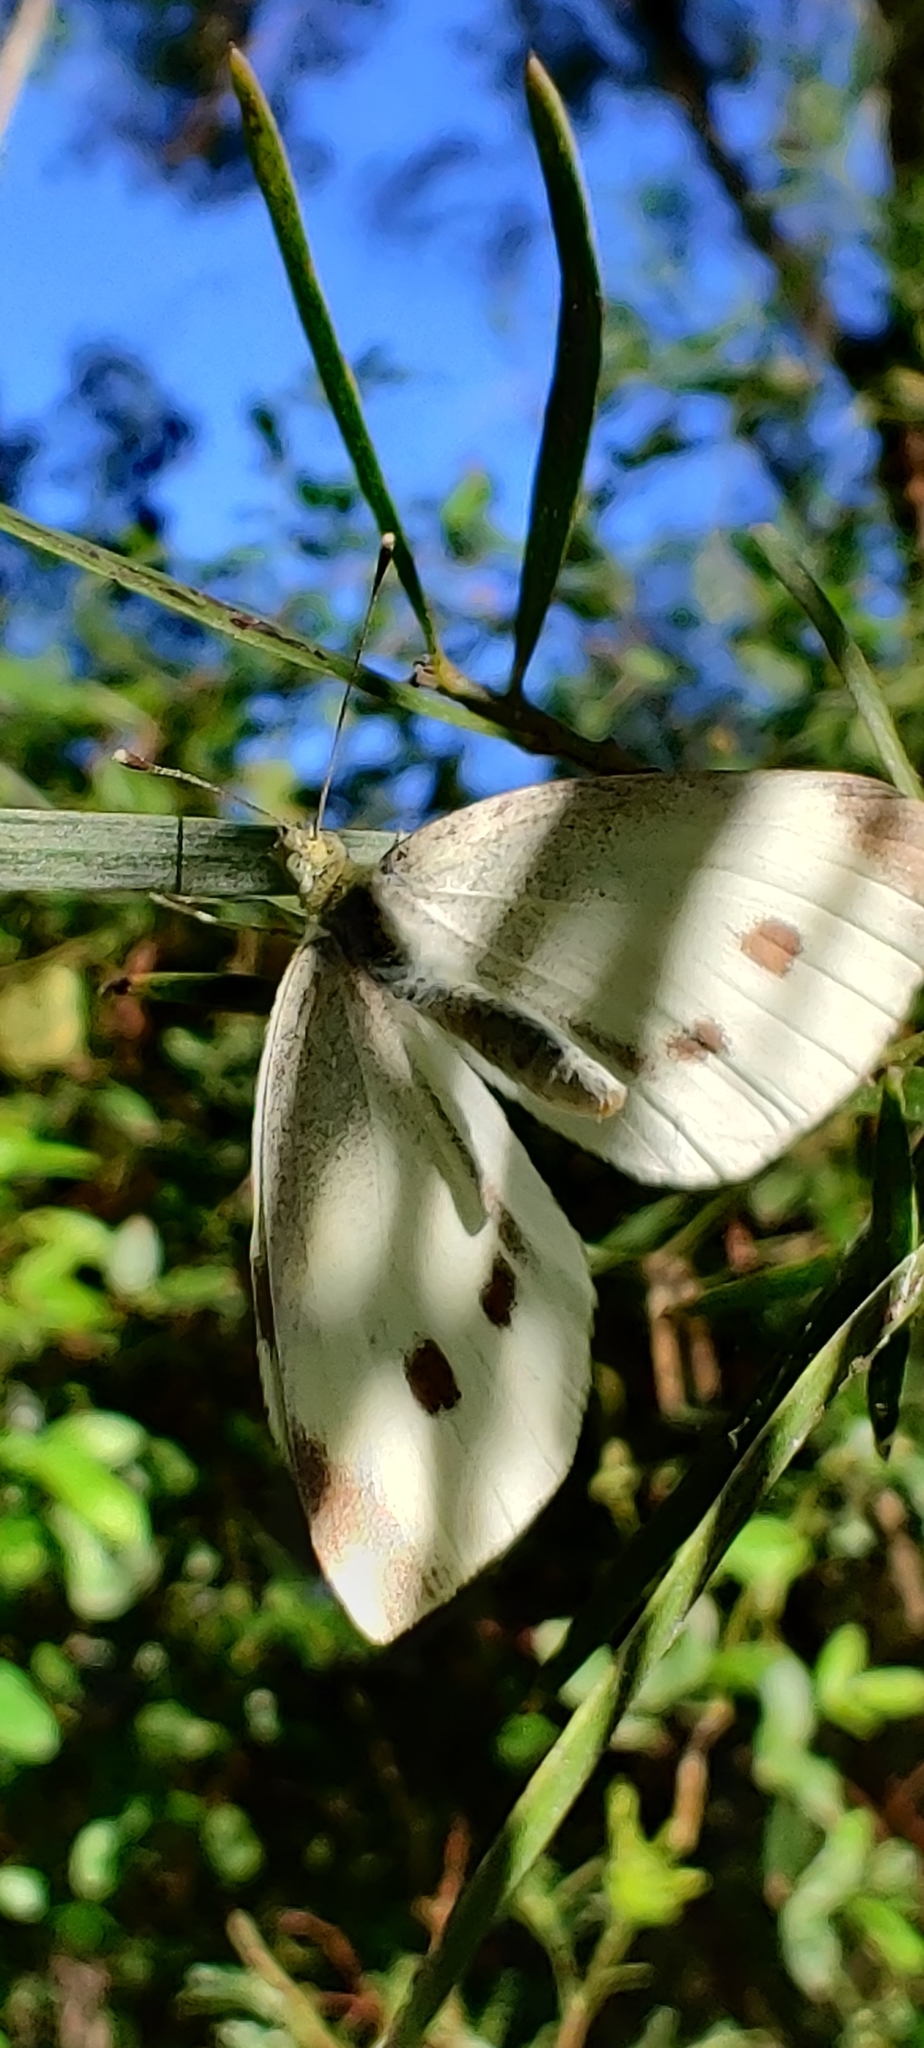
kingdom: Animalia
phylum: Arthropoda
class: Insecta
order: Lepidoptera
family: Pieridae
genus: Pieris
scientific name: Pieris rapae
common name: Small white
